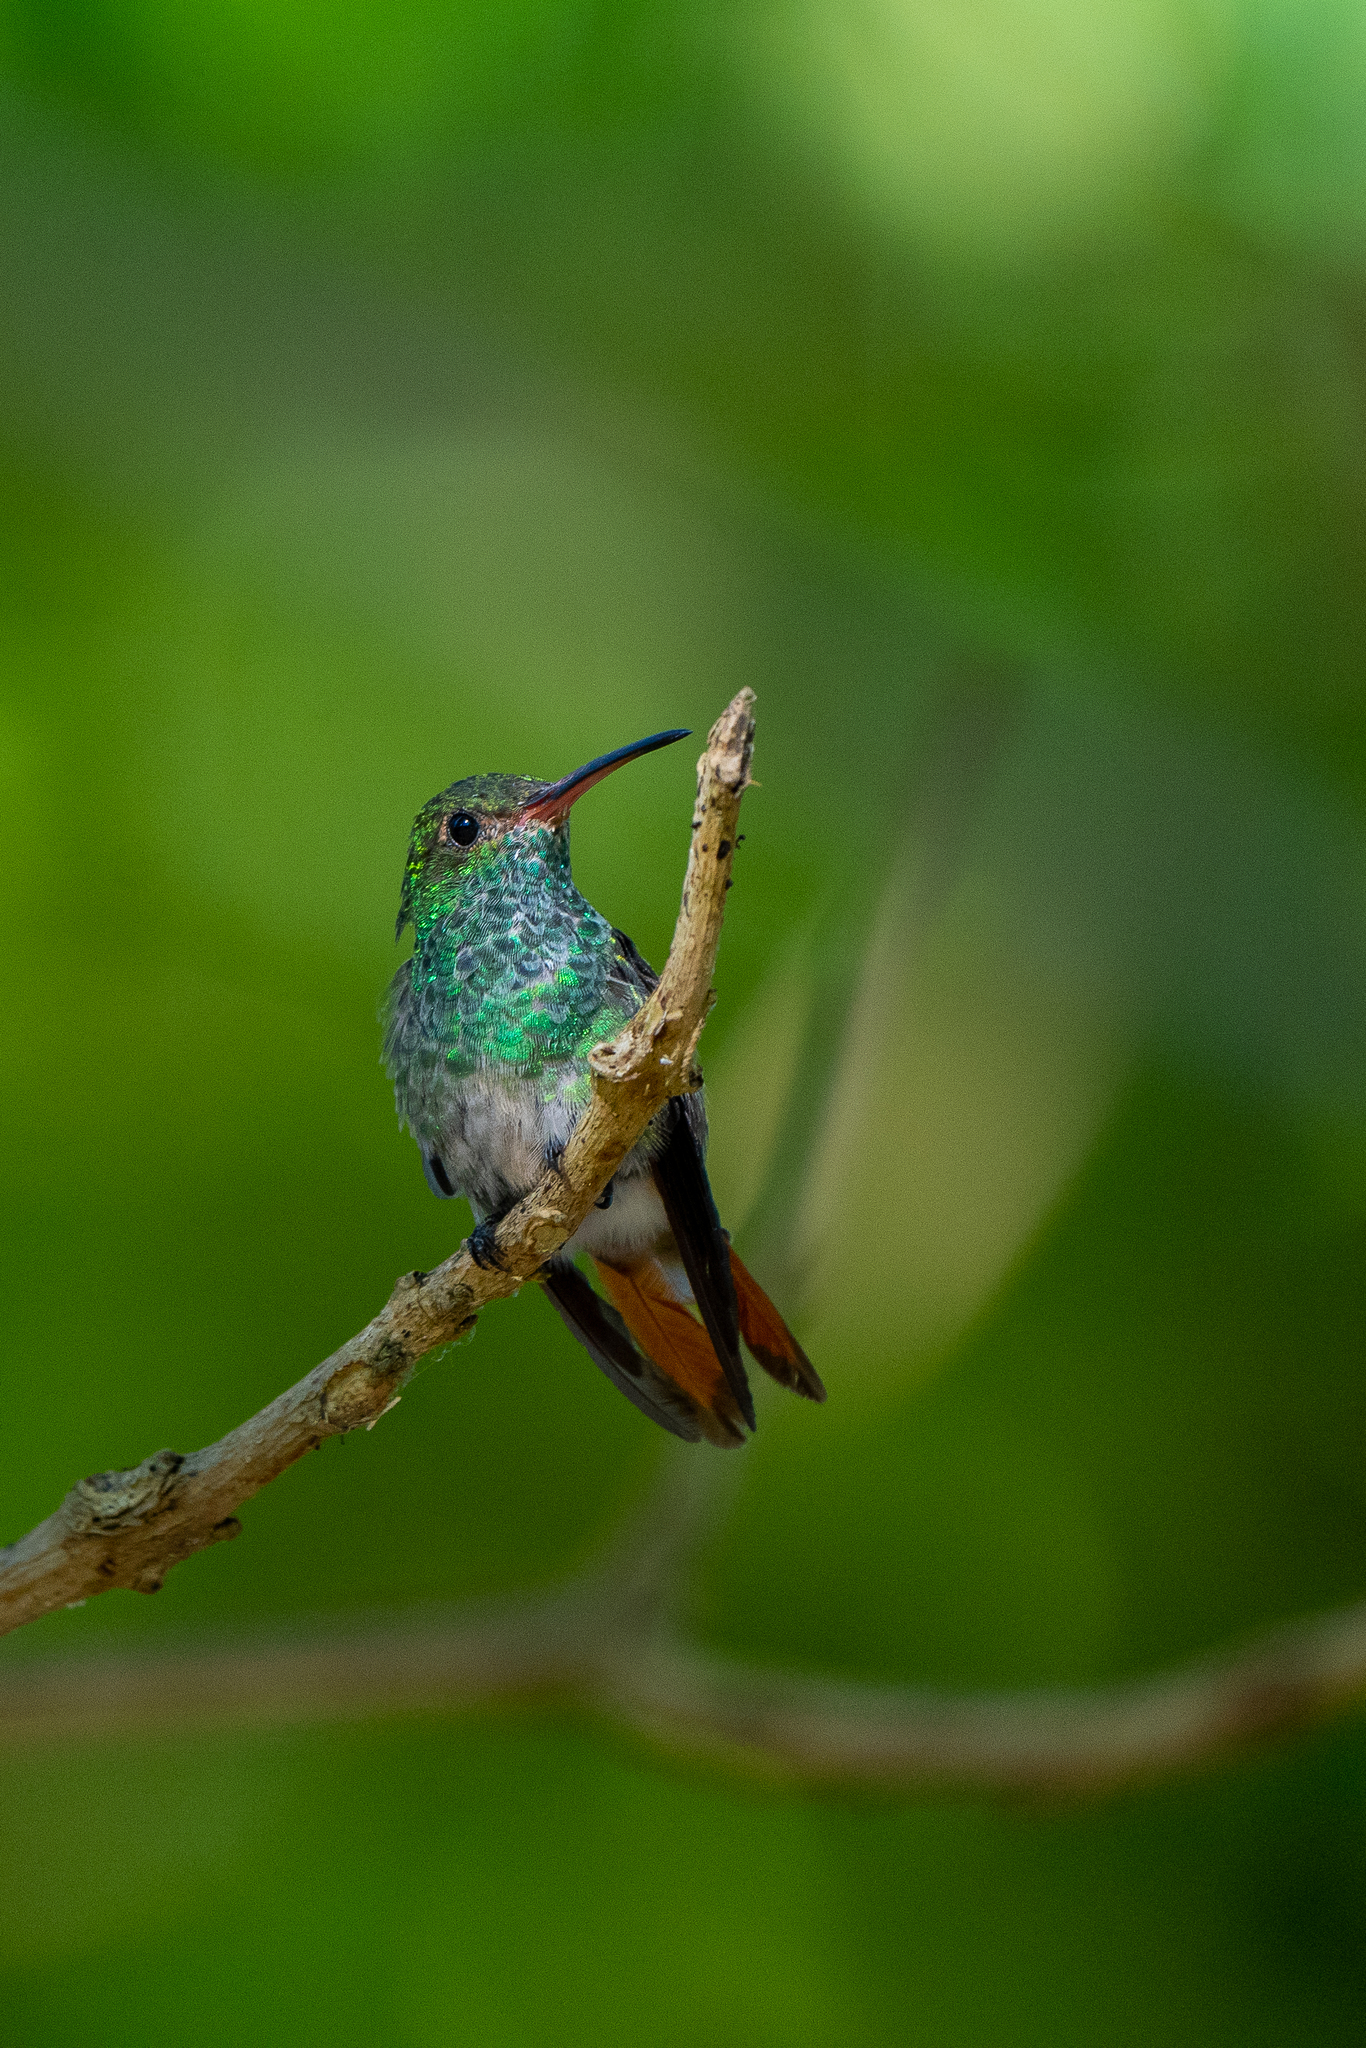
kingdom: Animalia
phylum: Chordata
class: Aves
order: Apodiformes
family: Trochilidae
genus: Amazilia
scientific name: Amazilia tzacatl
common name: Rufous-tailed hummingbird
